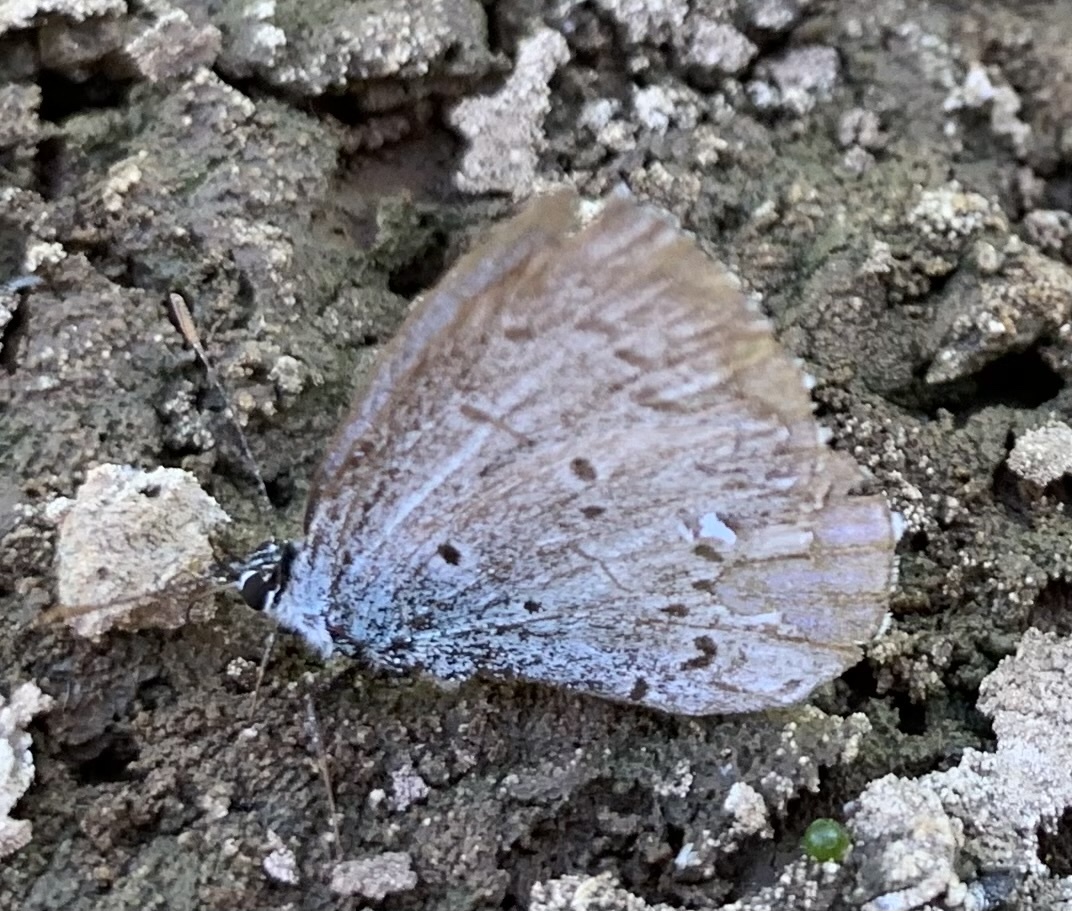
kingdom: Animalia
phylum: Arthropoda
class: Insecta
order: Lepidoptera
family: Lycaenidae
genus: Celastrina
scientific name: Celastrina argiolus
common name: Holly blue
